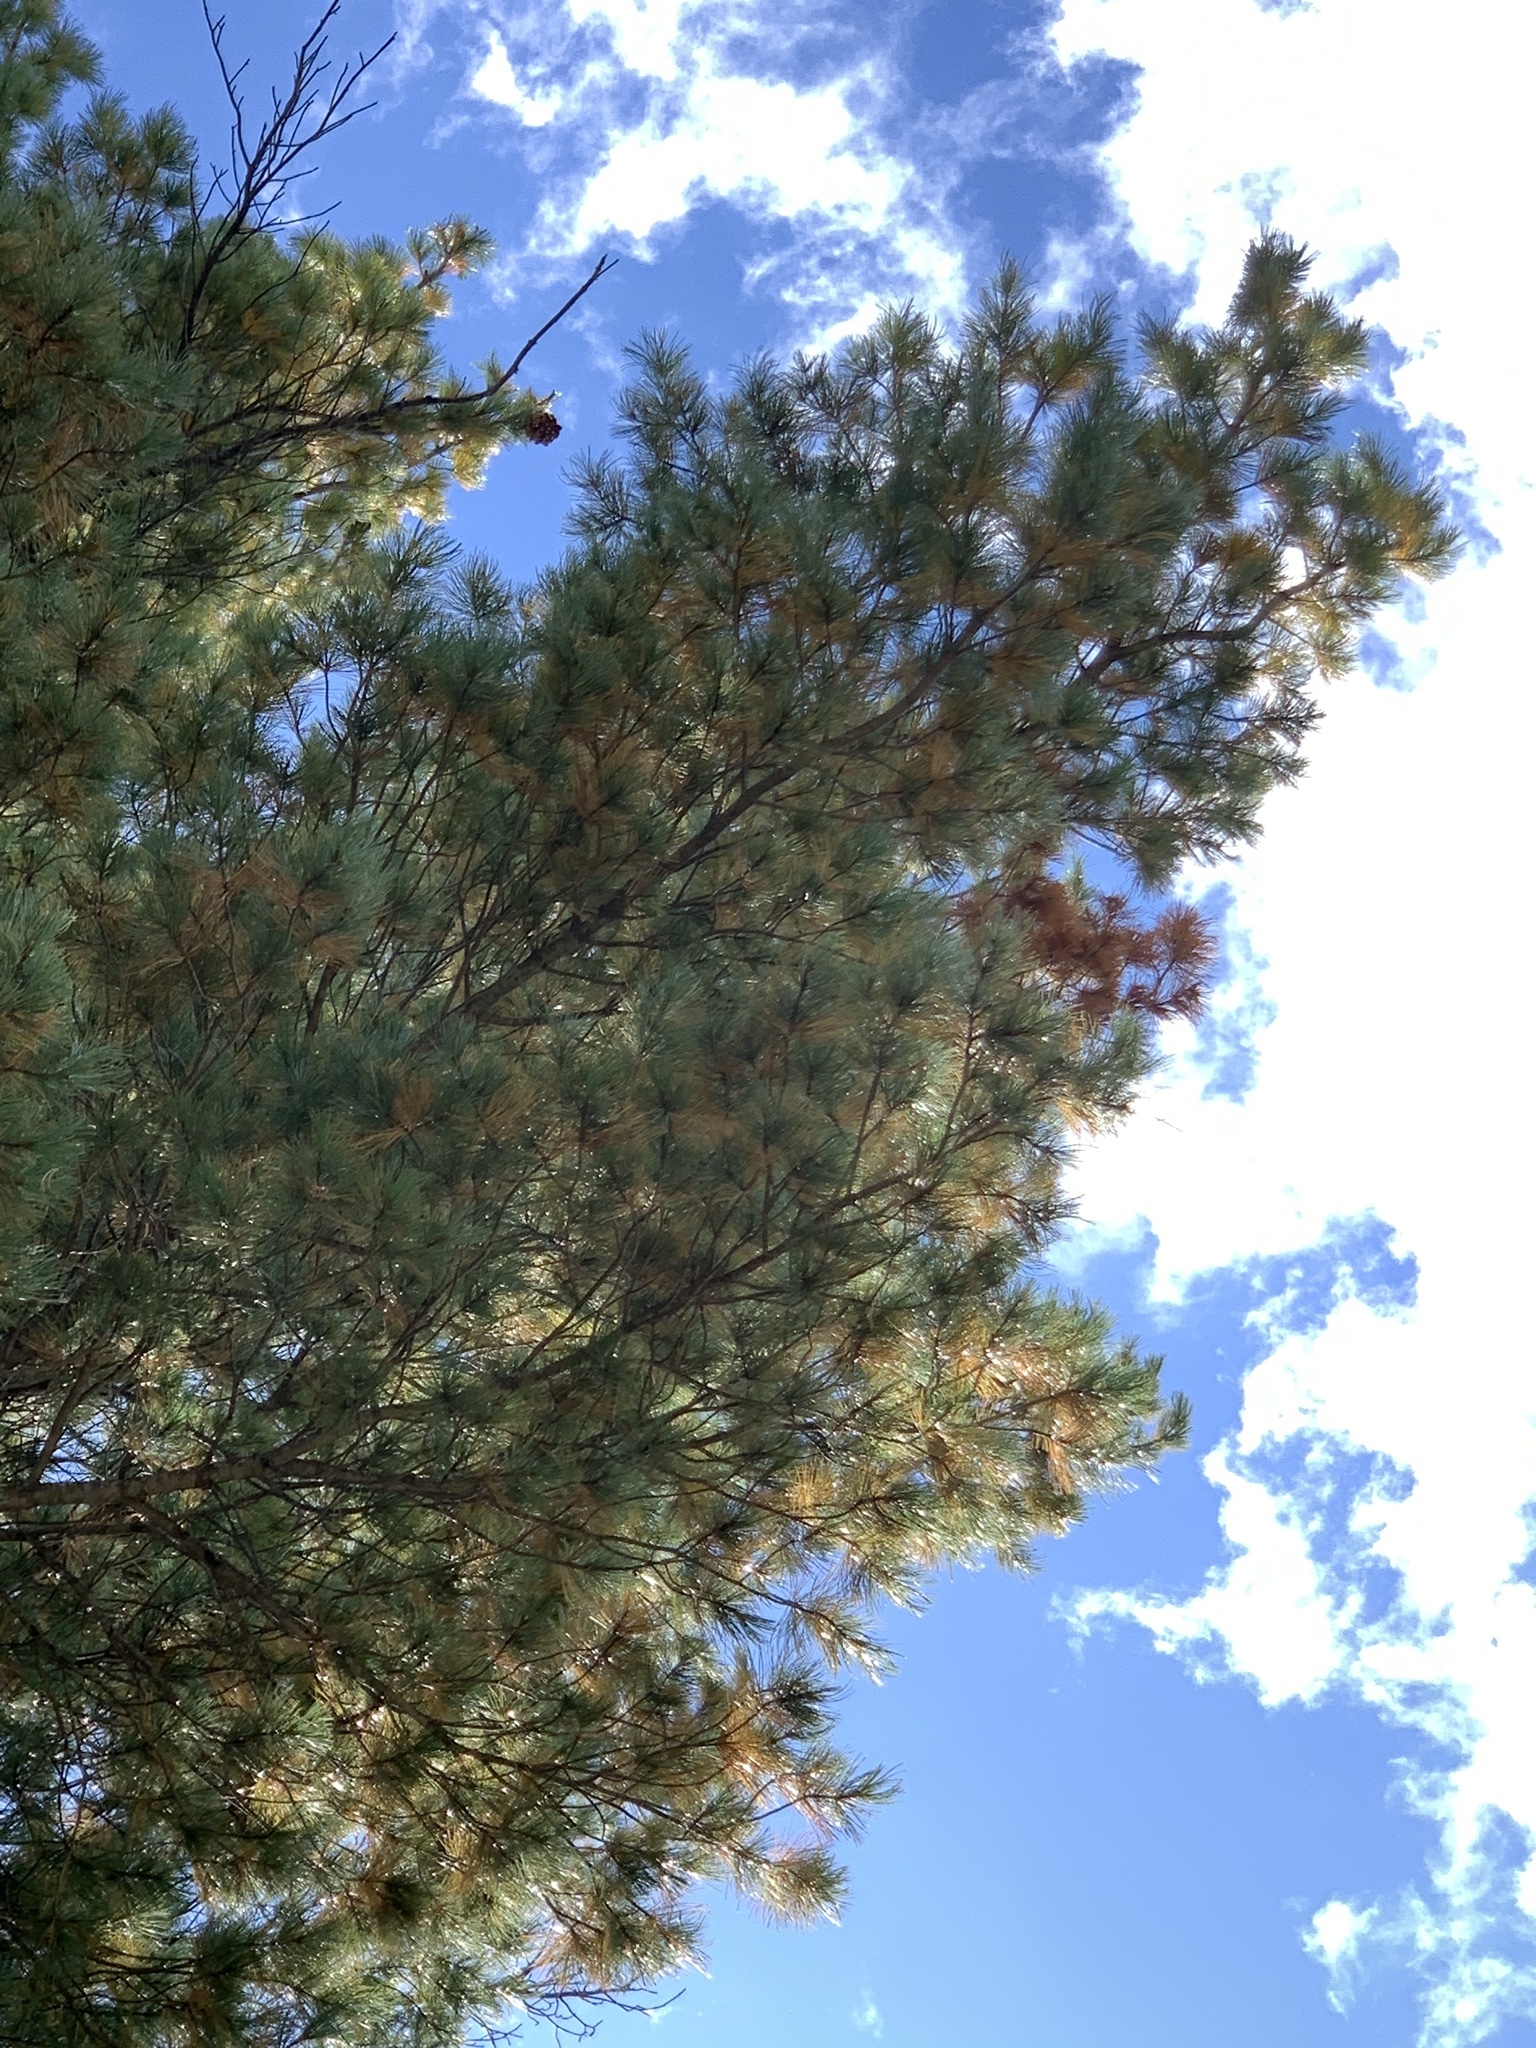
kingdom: Plantae
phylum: Tracheophyta
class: Pinopsida
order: Pinales
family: Pinaceae
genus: Pinus
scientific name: Pinus strobiformis
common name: Southwestern white pine
